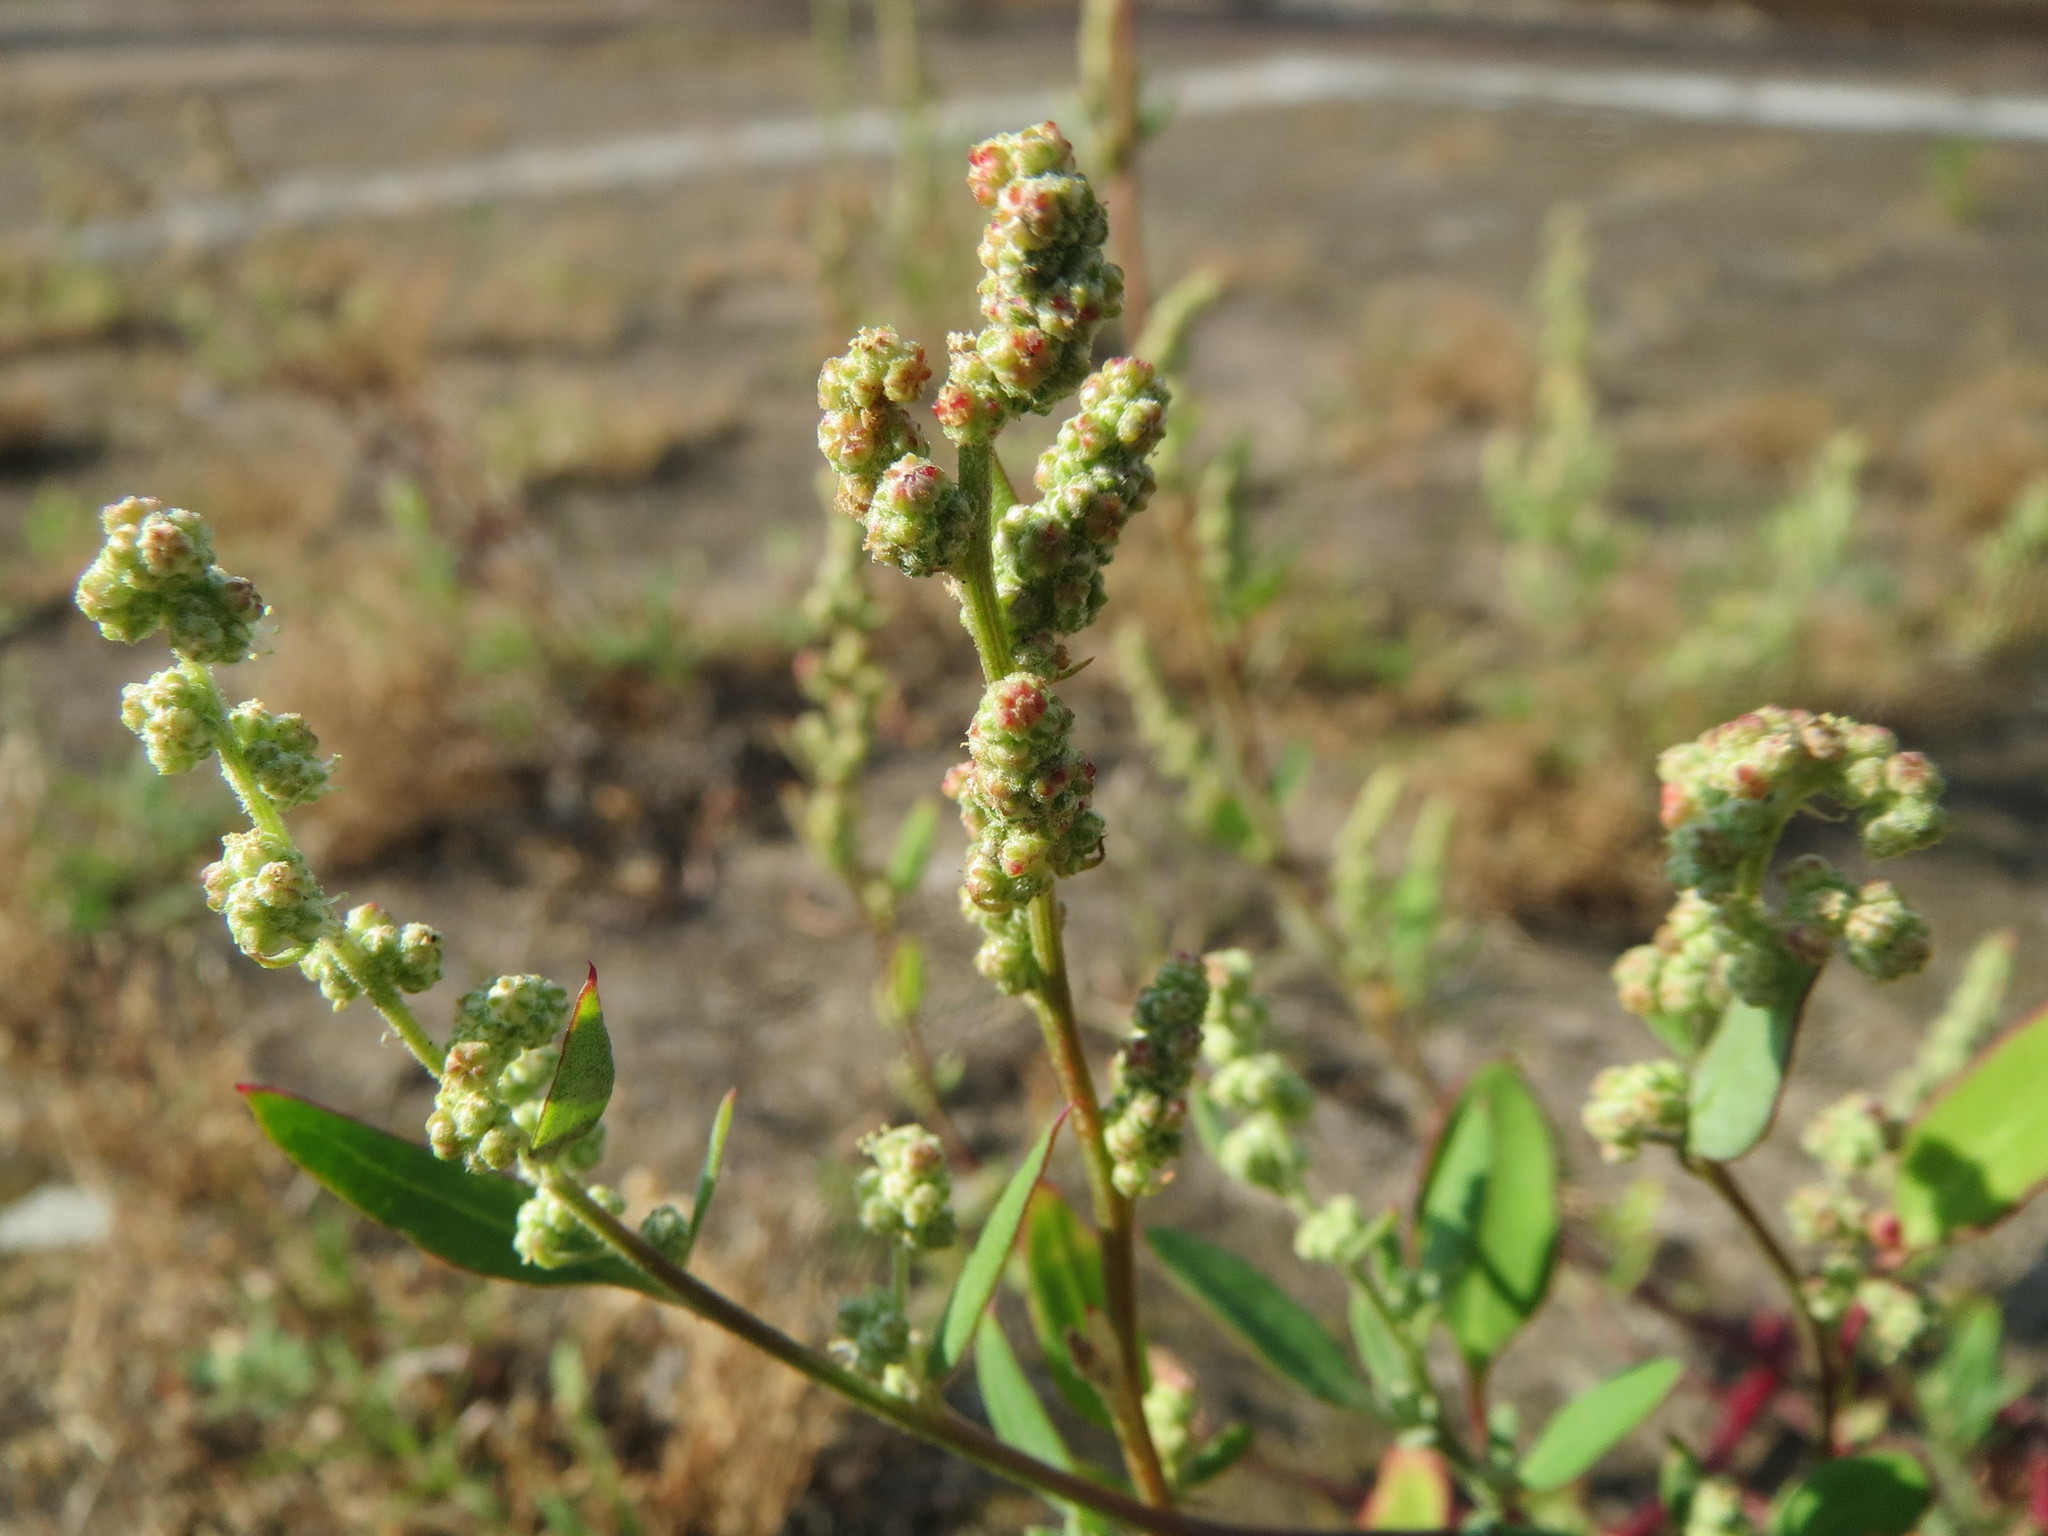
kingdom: Plantae
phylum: Tracheophyta
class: Magnoliopsida
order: Caryophyllales
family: Amaranthaceae
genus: Chenopodium
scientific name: Chenopodium album
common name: Fat-hen
